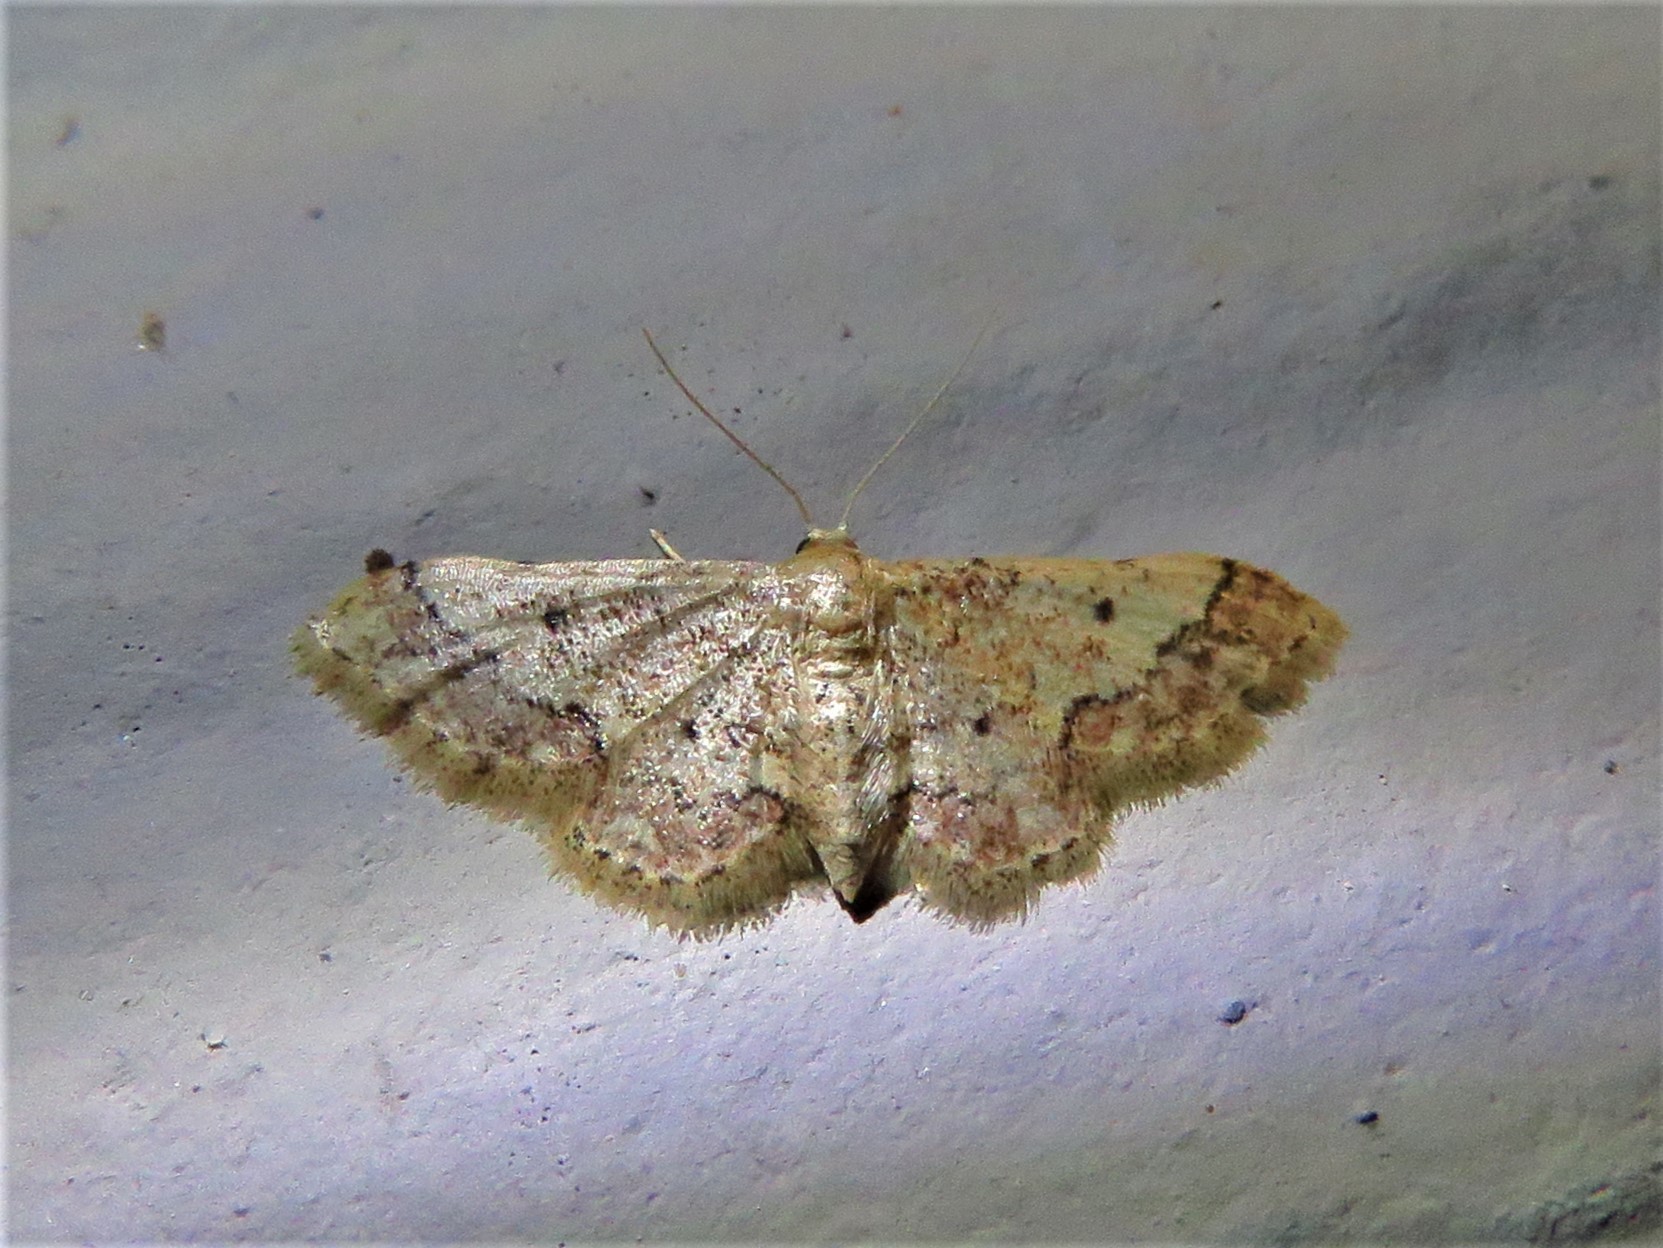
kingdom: Animalia
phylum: Arthropoda
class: Insecta
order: Lepidoptera
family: Geometridae
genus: Idaea
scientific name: Idaea celtima
